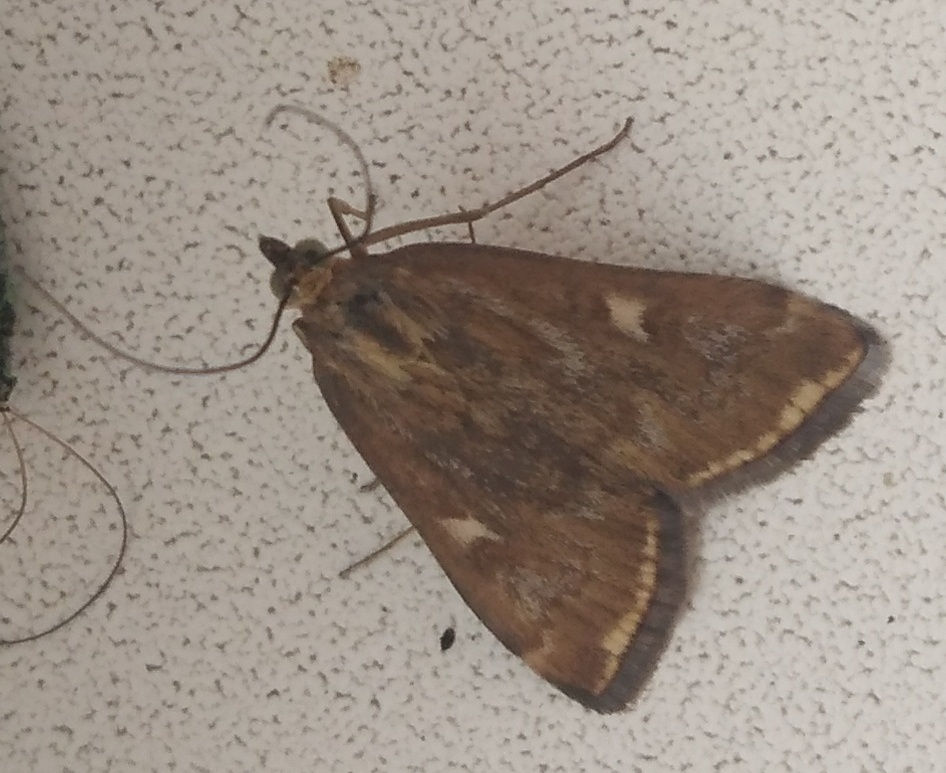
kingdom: Animalia
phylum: Arthropoda
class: Insecta
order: Lepidoptera
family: Crambidae
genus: Loxostege
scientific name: Loxostege sticticalis
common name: Crambid moth
